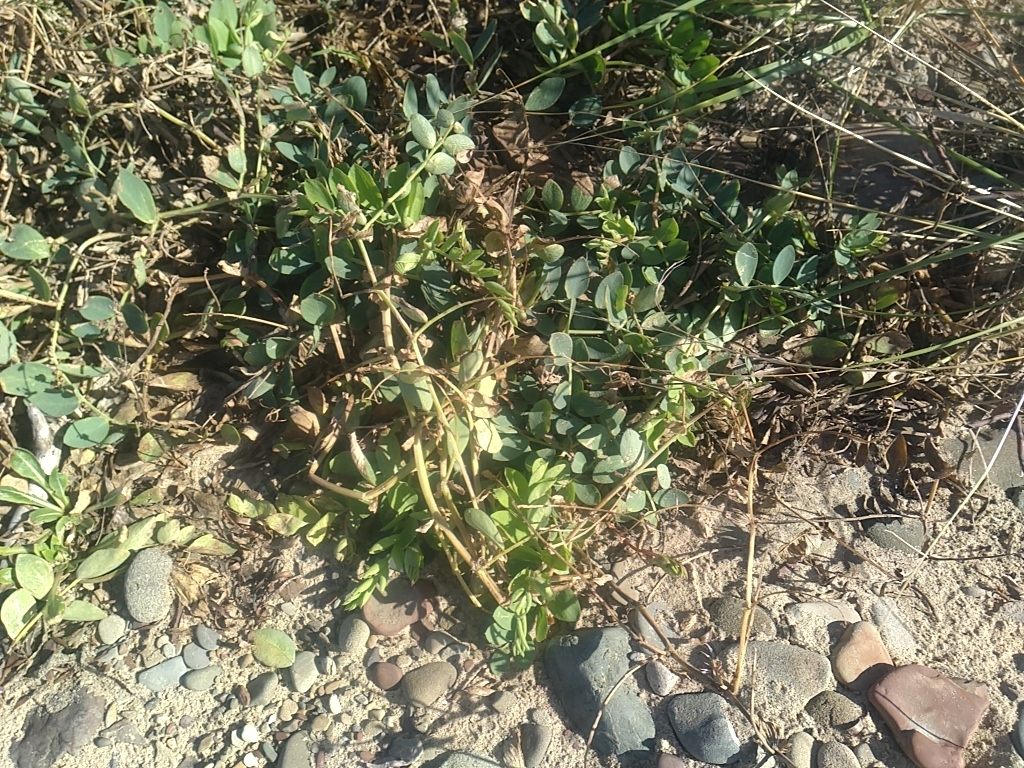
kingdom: Plantae
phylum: Tracheophyta
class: Magnoliopsida
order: Fabales
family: Fabaceae
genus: Lathyrus
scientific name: Lathyrus japonicus
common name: Sea pea
